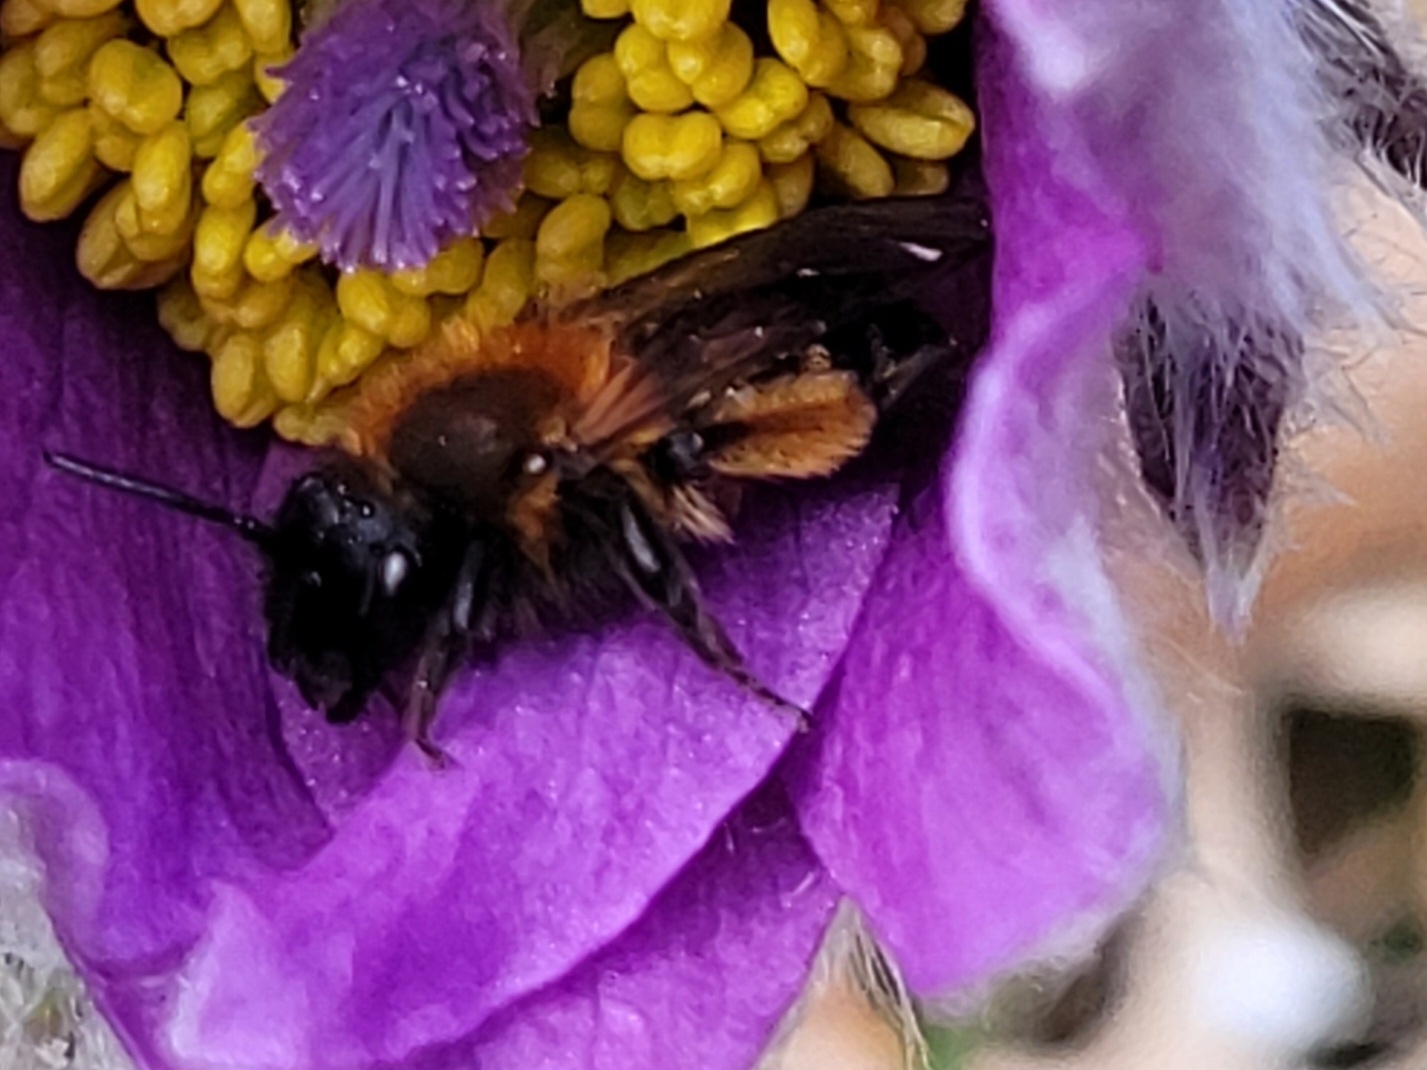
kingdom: Animalia
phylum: Arthropoda
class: Insecta
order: Hymenoptera
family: Andrenidae
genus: Andrena
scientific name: Andrena bicolor
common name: Gwynne's mining bee
